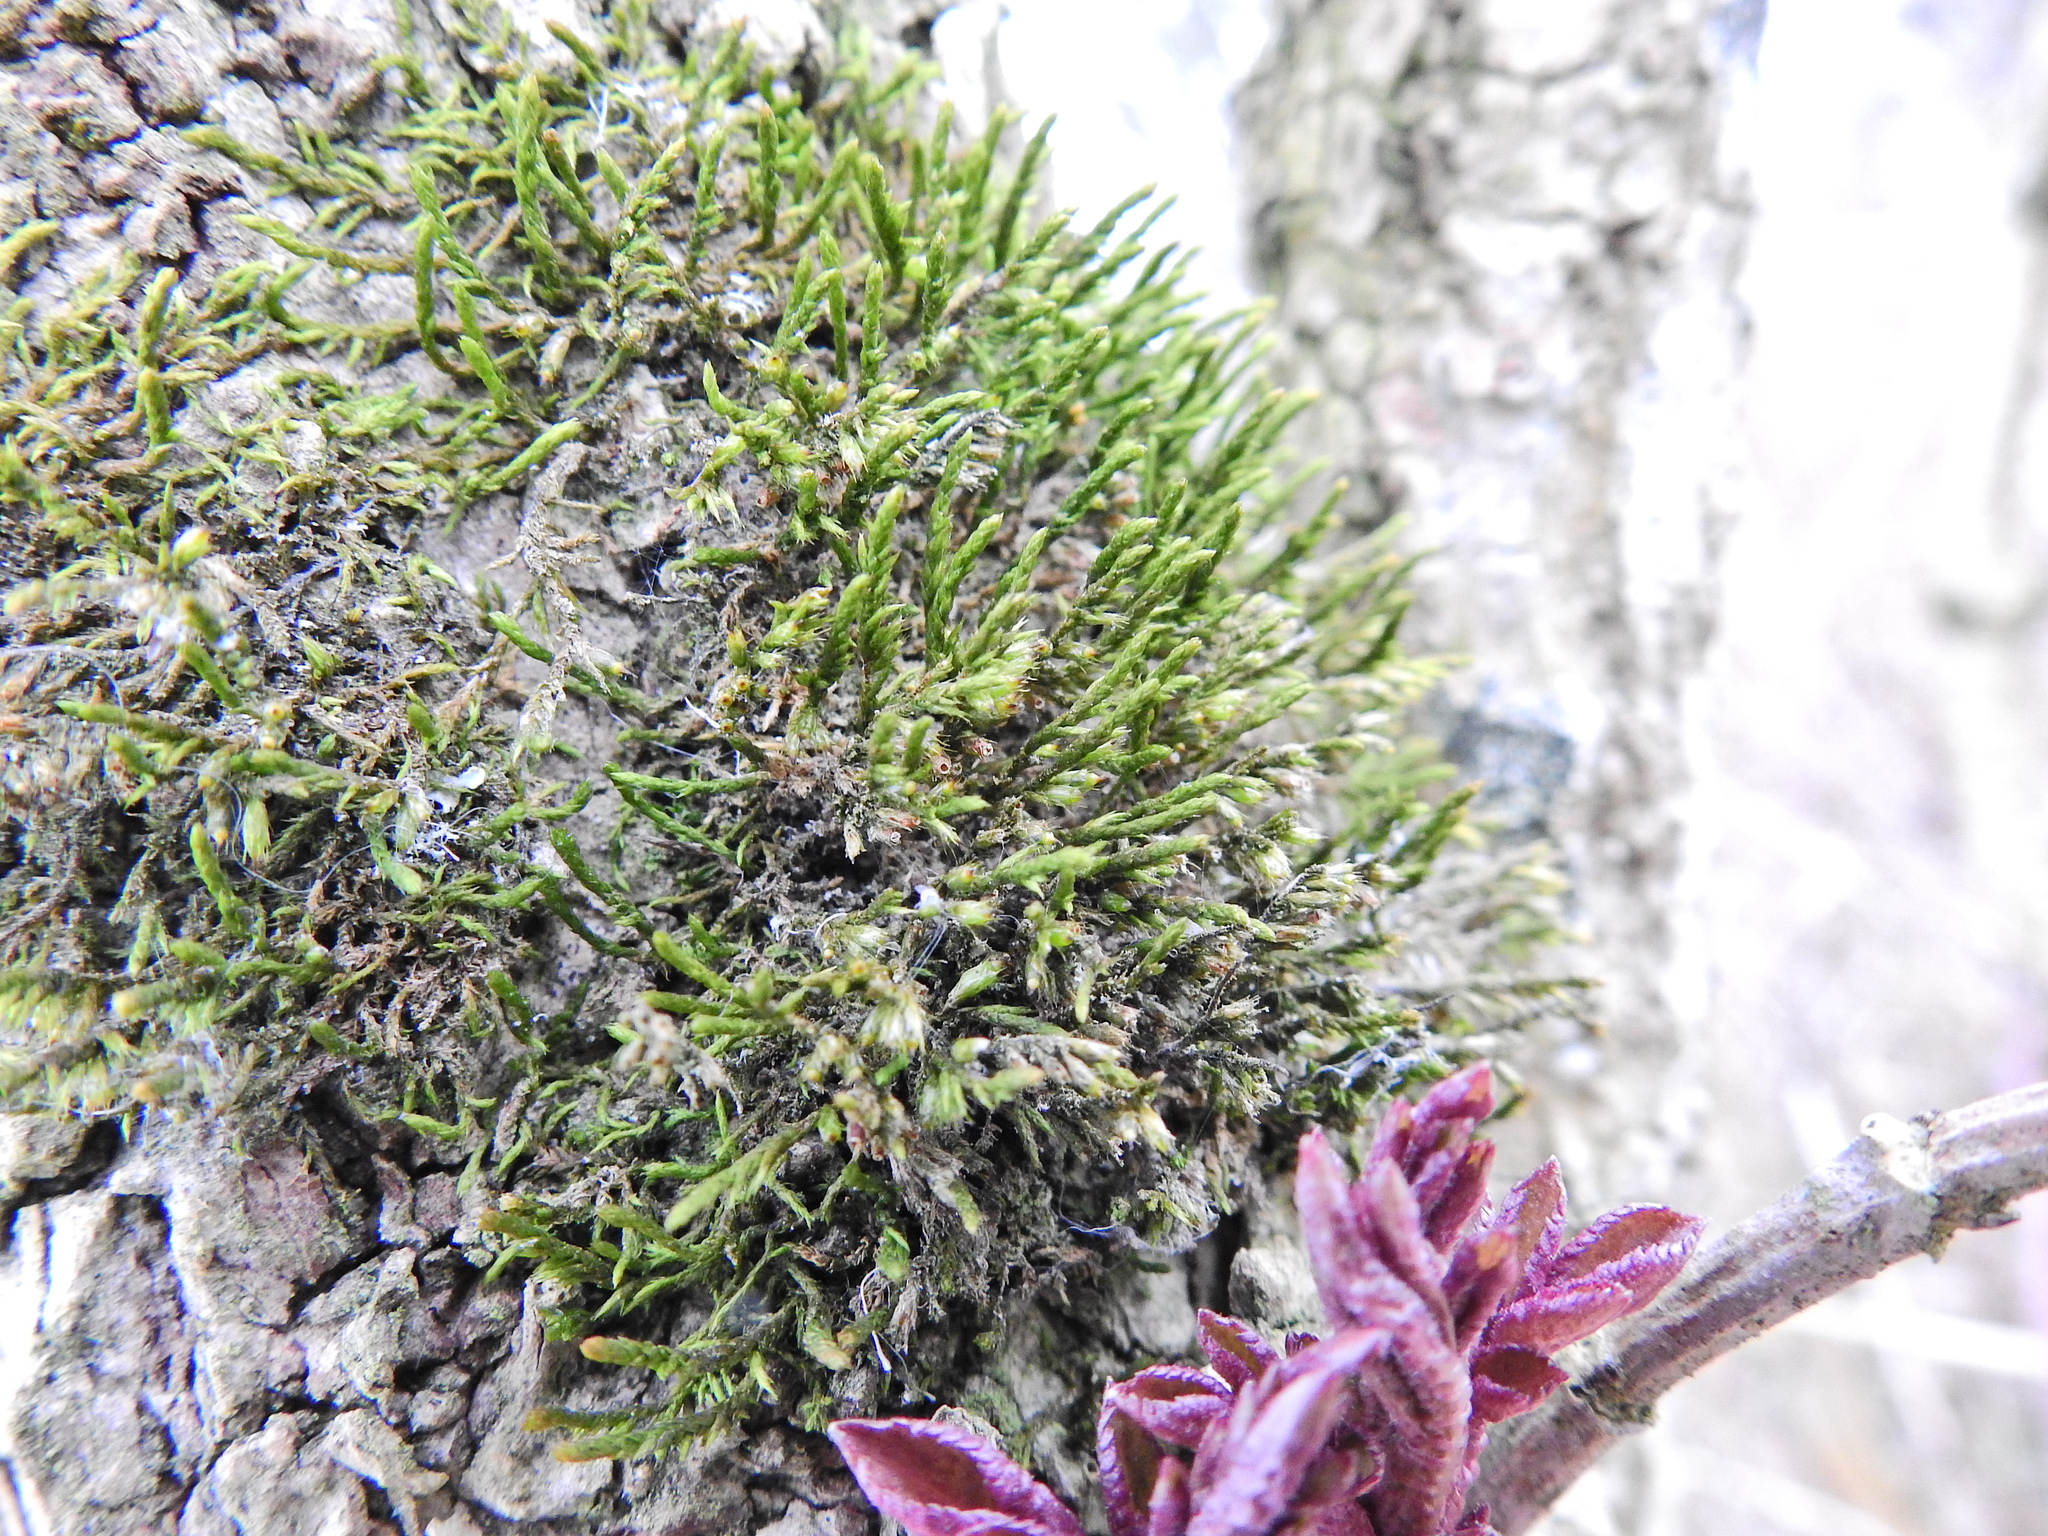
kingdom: Plantae
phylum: Bryophyta
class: Bryopsida
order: Hypnales
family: Cryphaeaceae
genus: Cryphaea
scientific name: Cryphaea heteromalla
